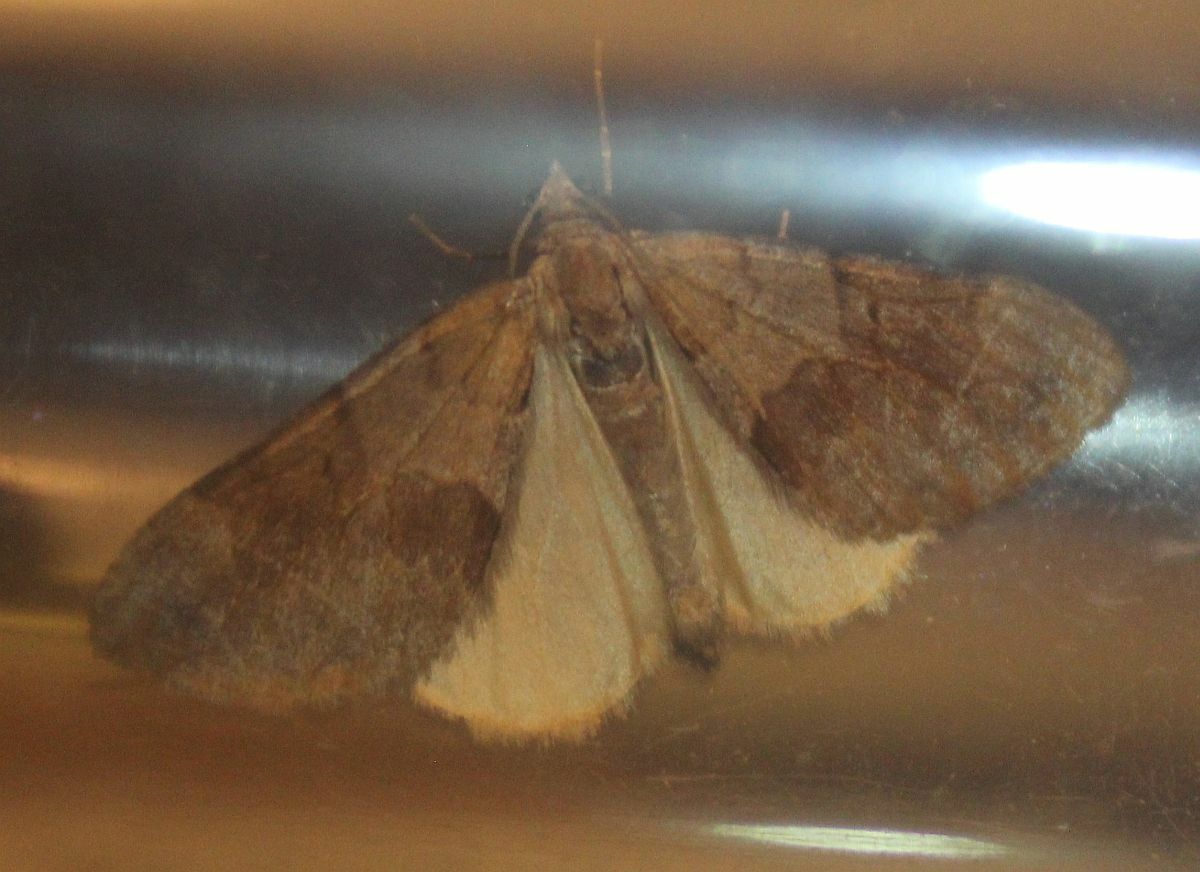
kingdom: Animalia
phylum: Arthropoda
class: Insecta
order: Lepidoptera
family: Geometridae
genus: Pennithera
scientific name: Pennithera firmata
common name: Pine carpet
